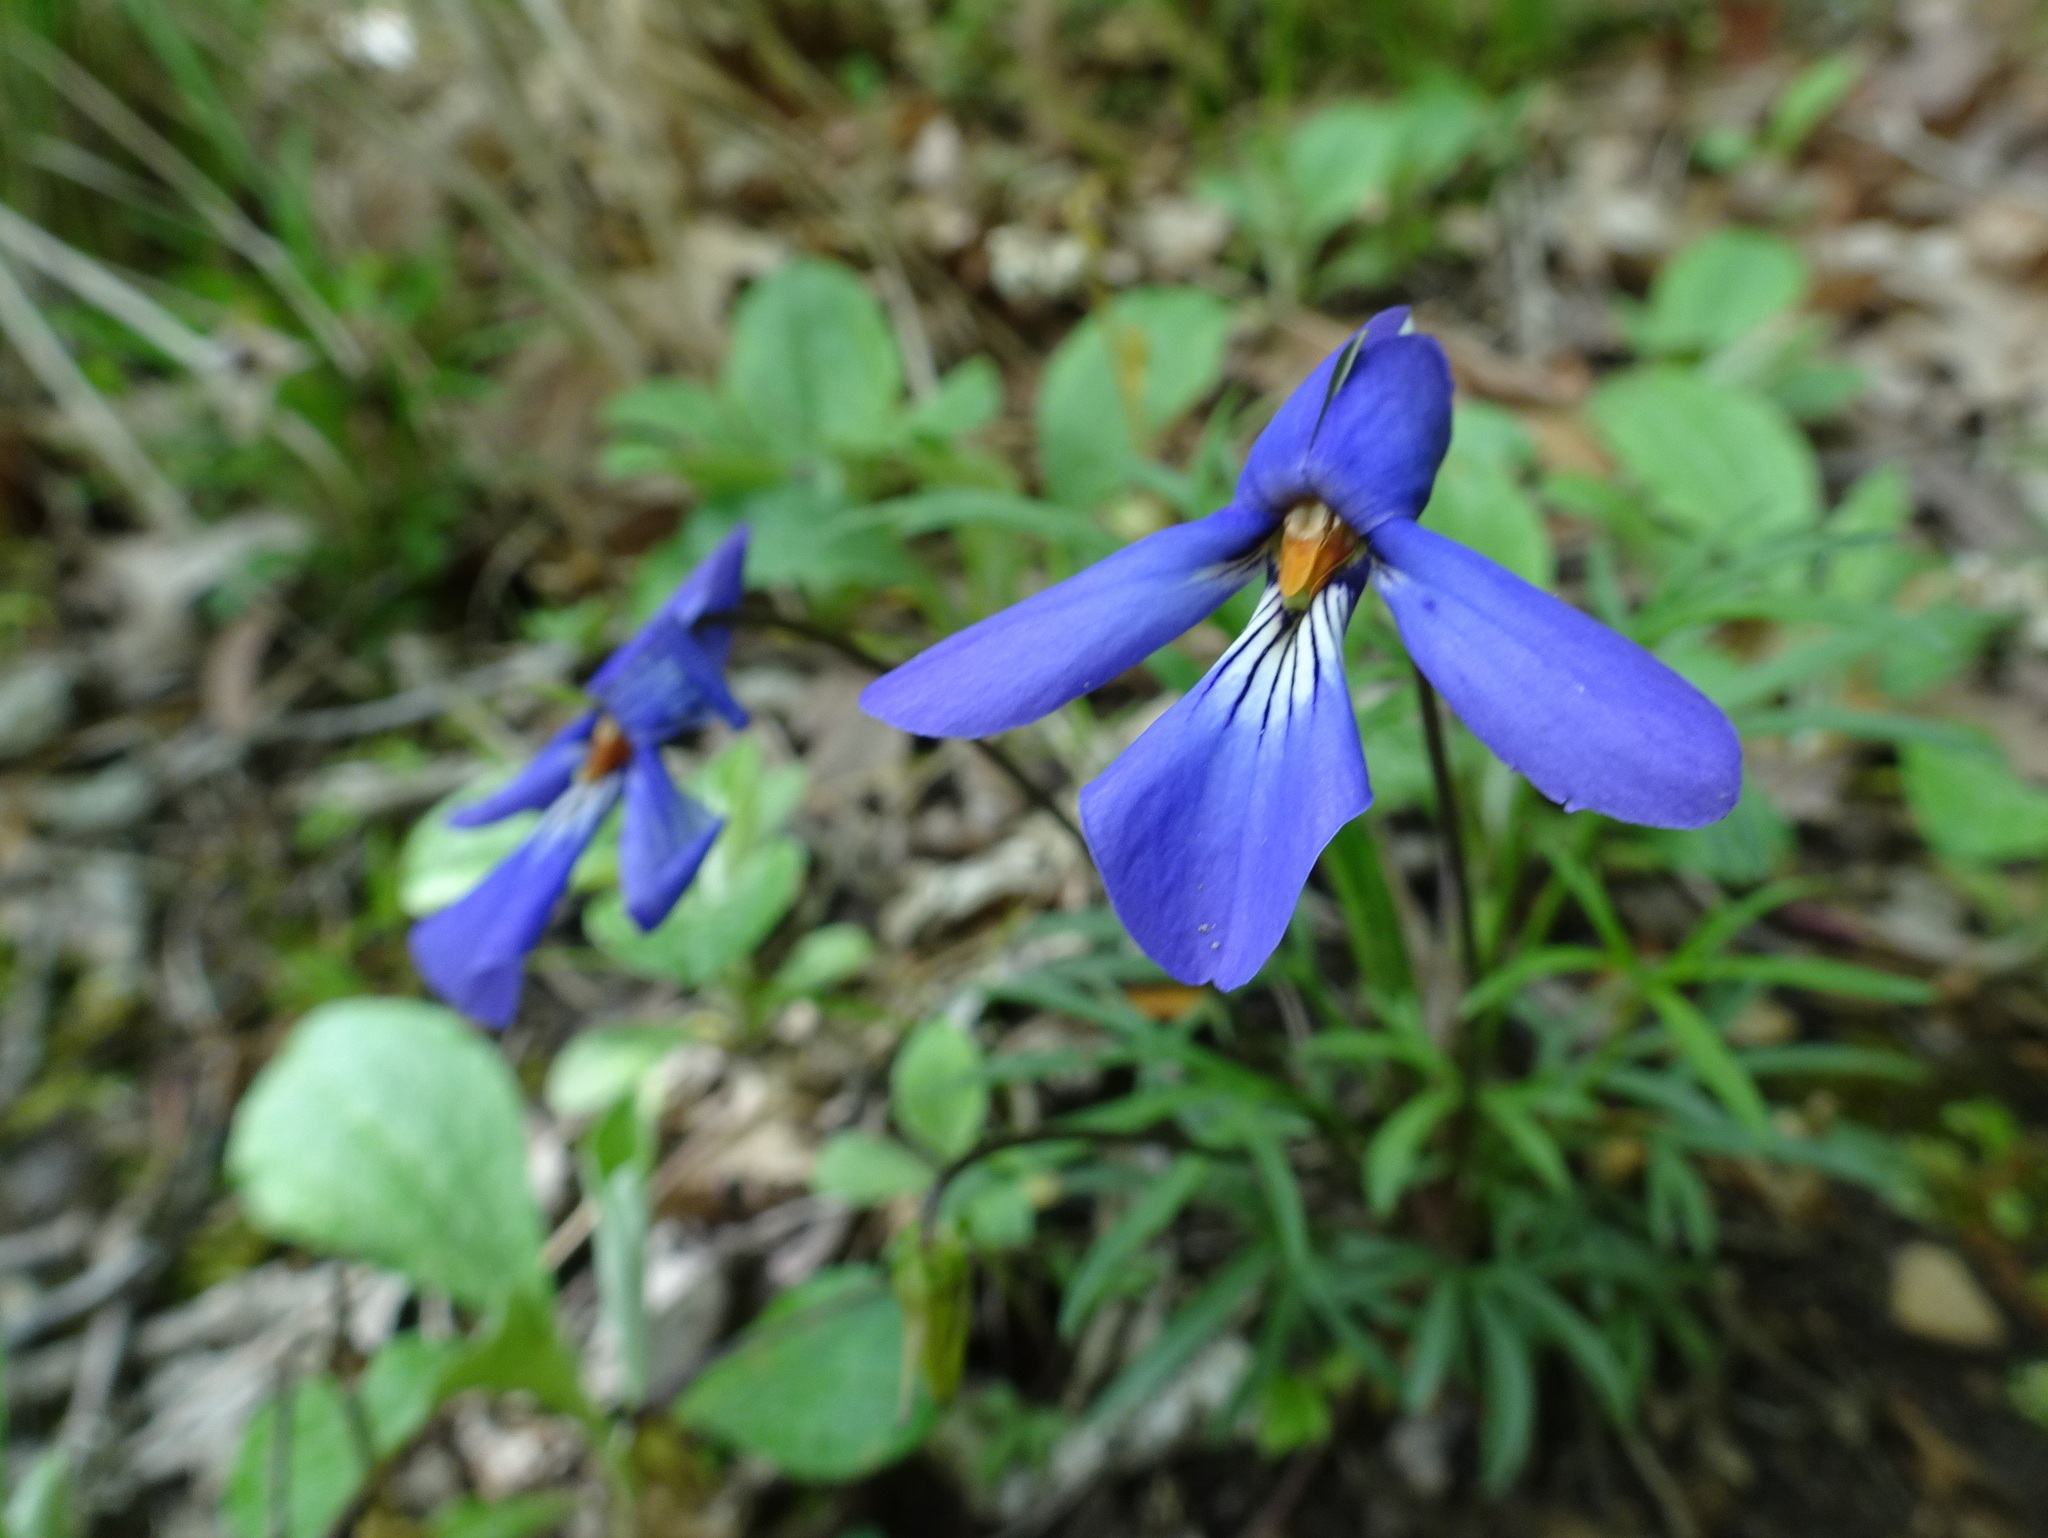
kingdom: Plantae
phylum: Tracheophyta
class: Magnoliopsida
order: Malpighiales
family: Violaceae
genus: Viola
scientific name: Viola pedata
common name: Pansy violet
